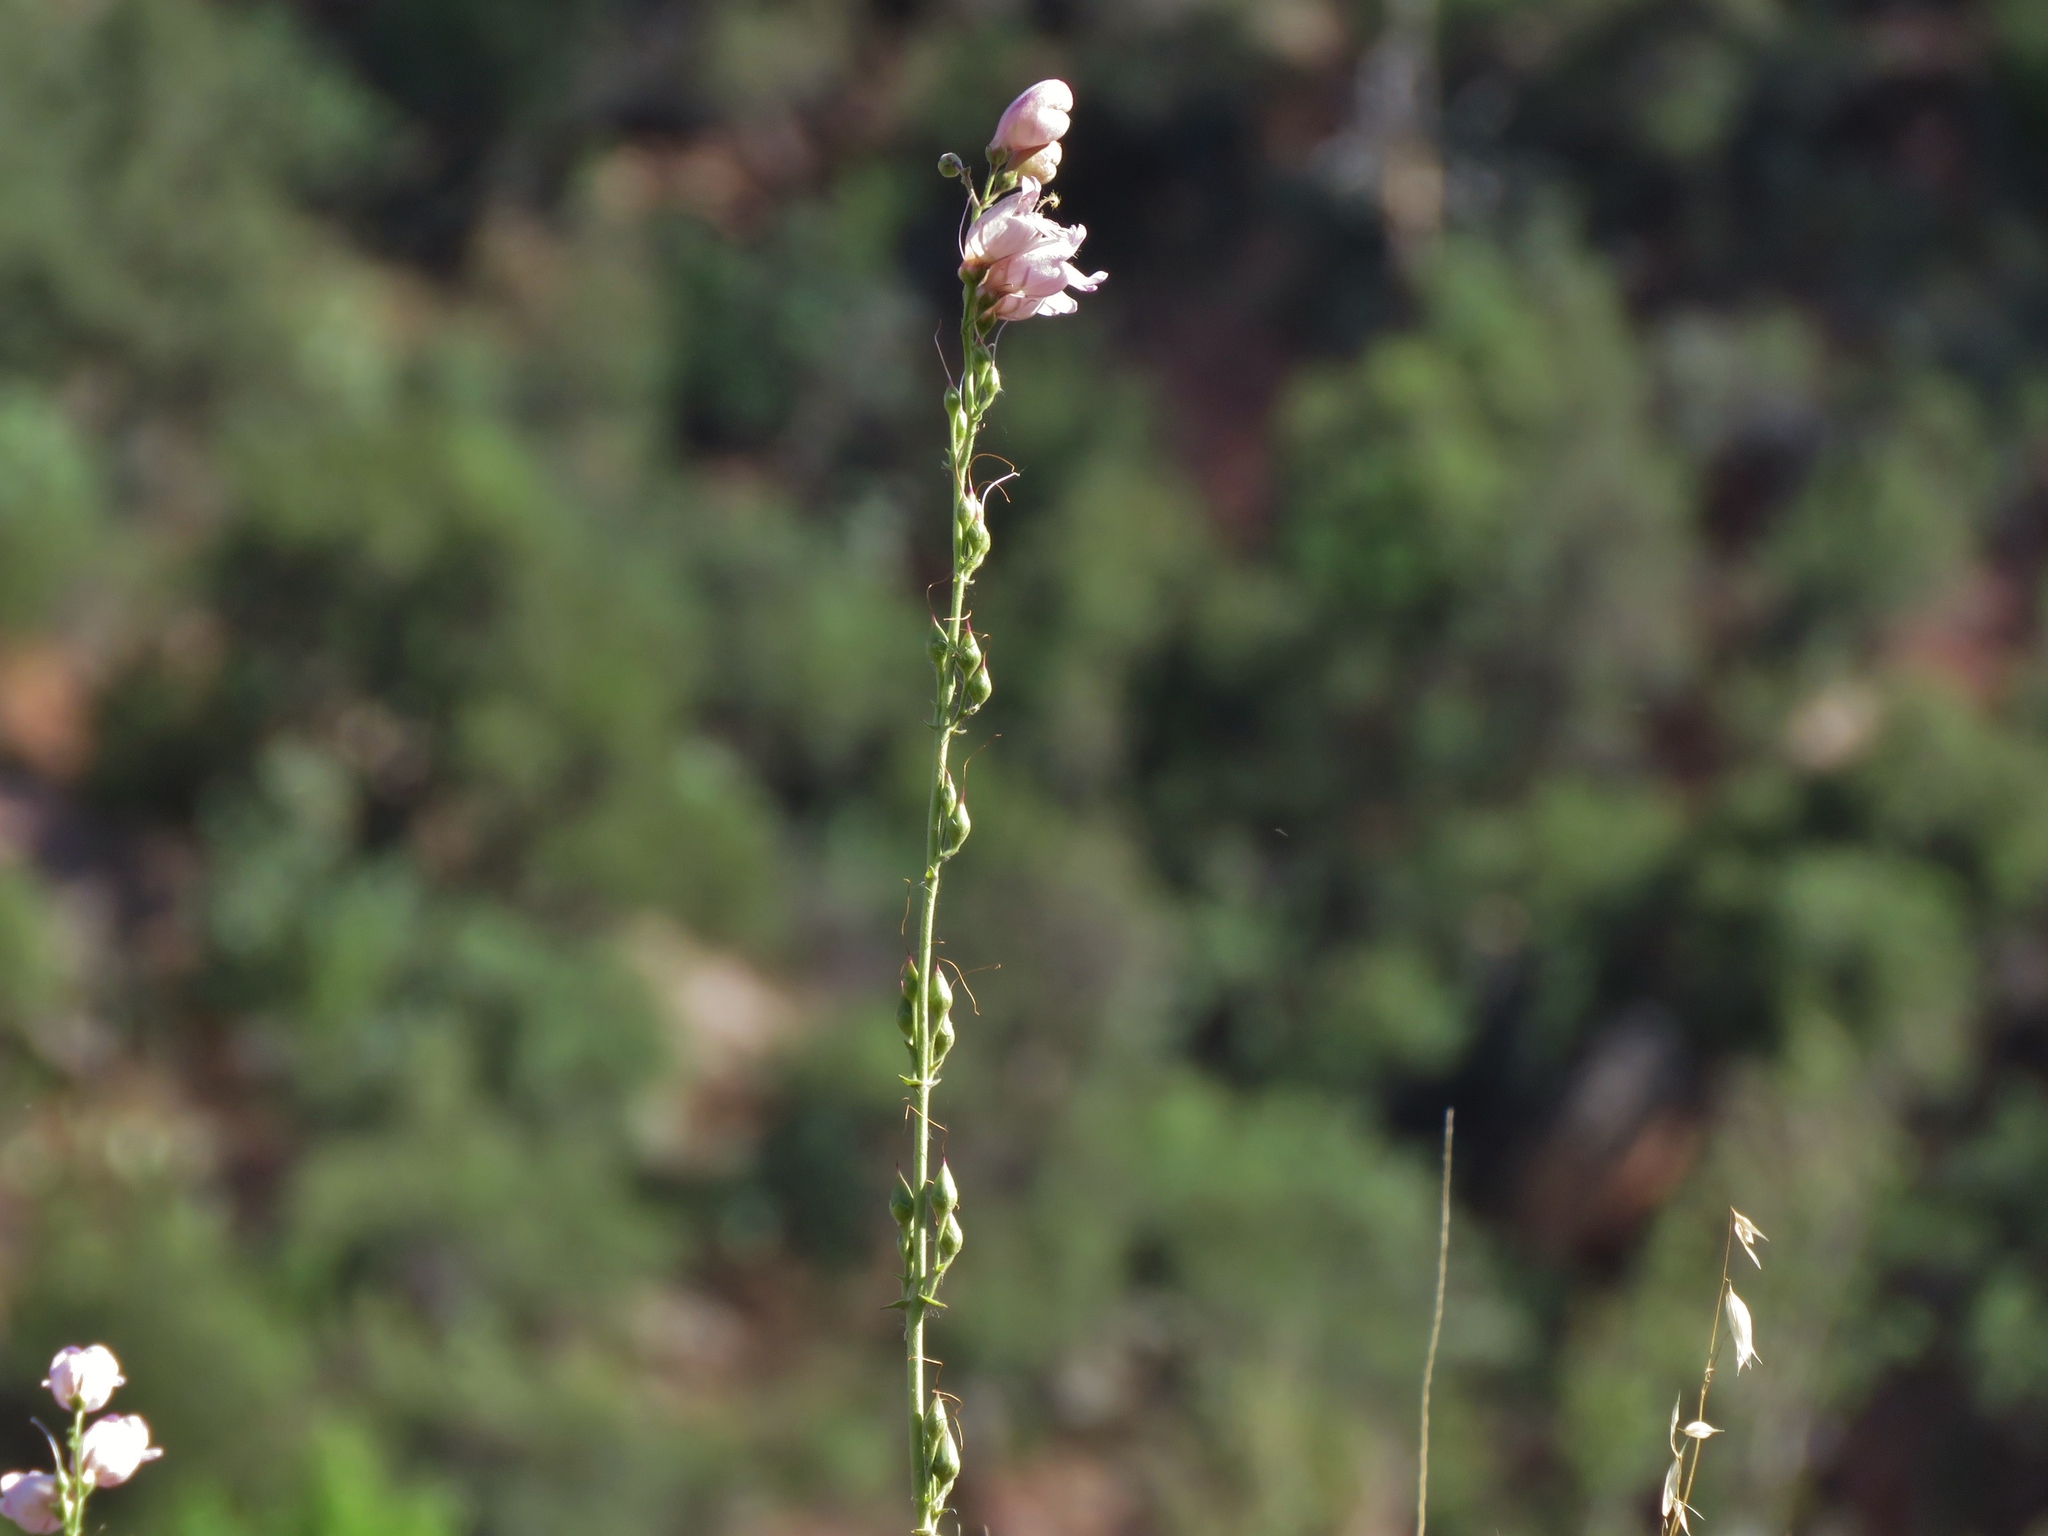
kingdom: Plantae
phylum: Tracheophyta
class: Magnoliopsida
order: Lamiales
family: Plantaginaceae
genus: Penstemon
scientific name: Penstemon palmeri
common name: Palmer penstemon
